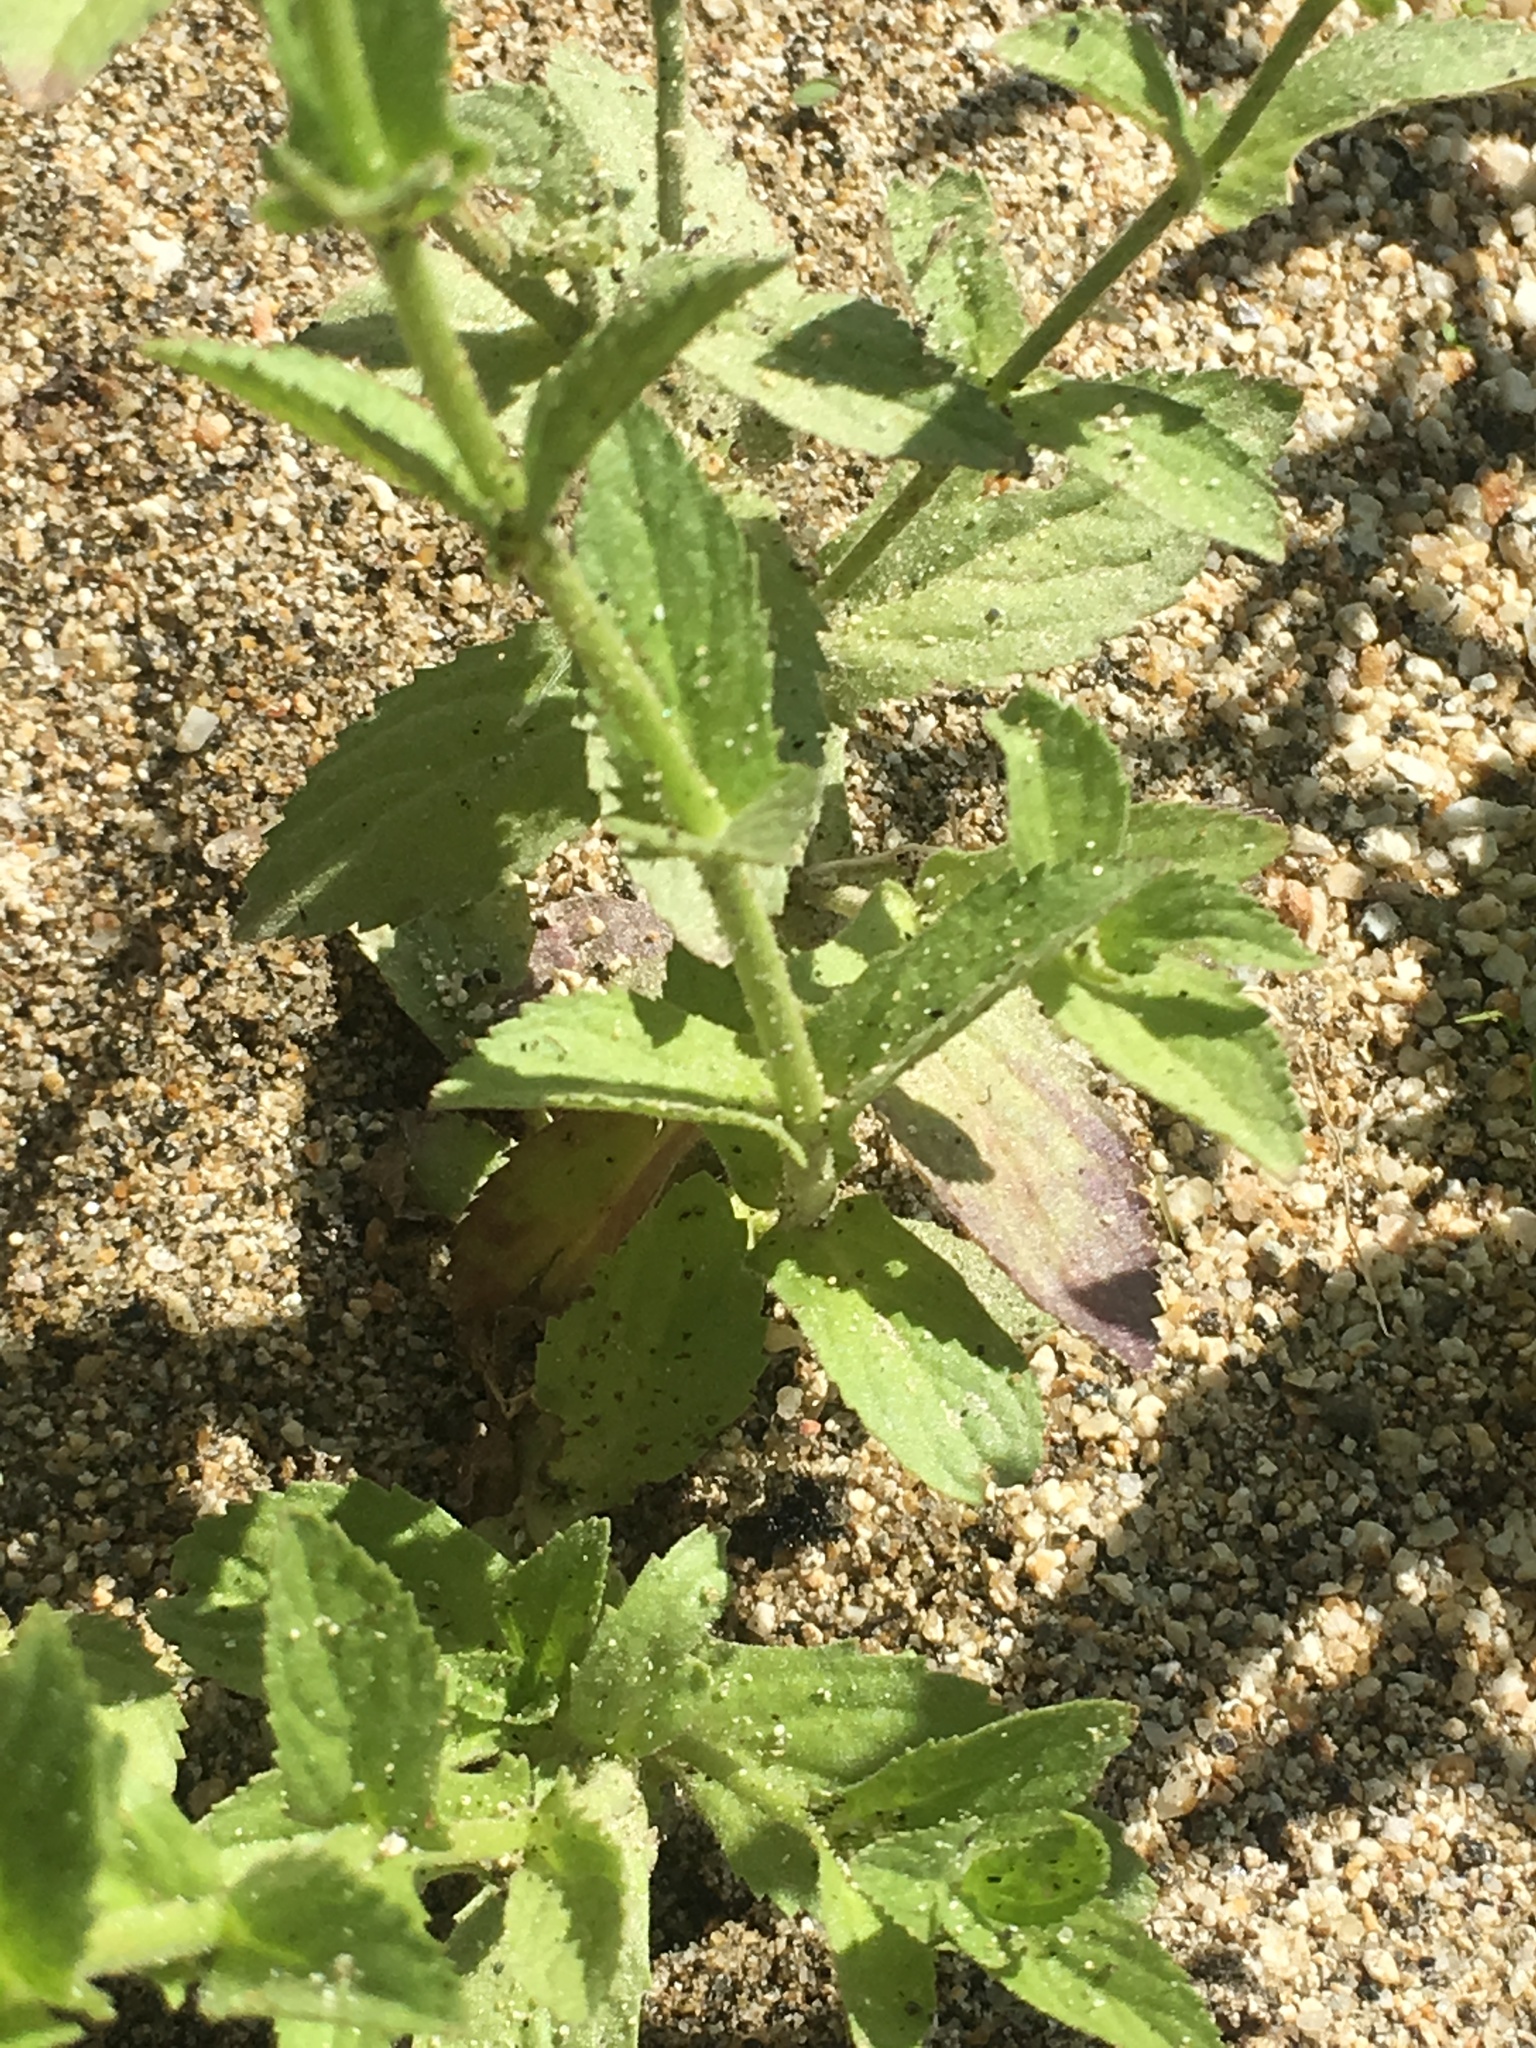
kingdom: Plantae
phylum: Tracheophyta
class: Magnoliopsida
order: Lamiales
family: Plantaginaceae
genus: Stemodia
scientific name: Stemodia durantifolia
